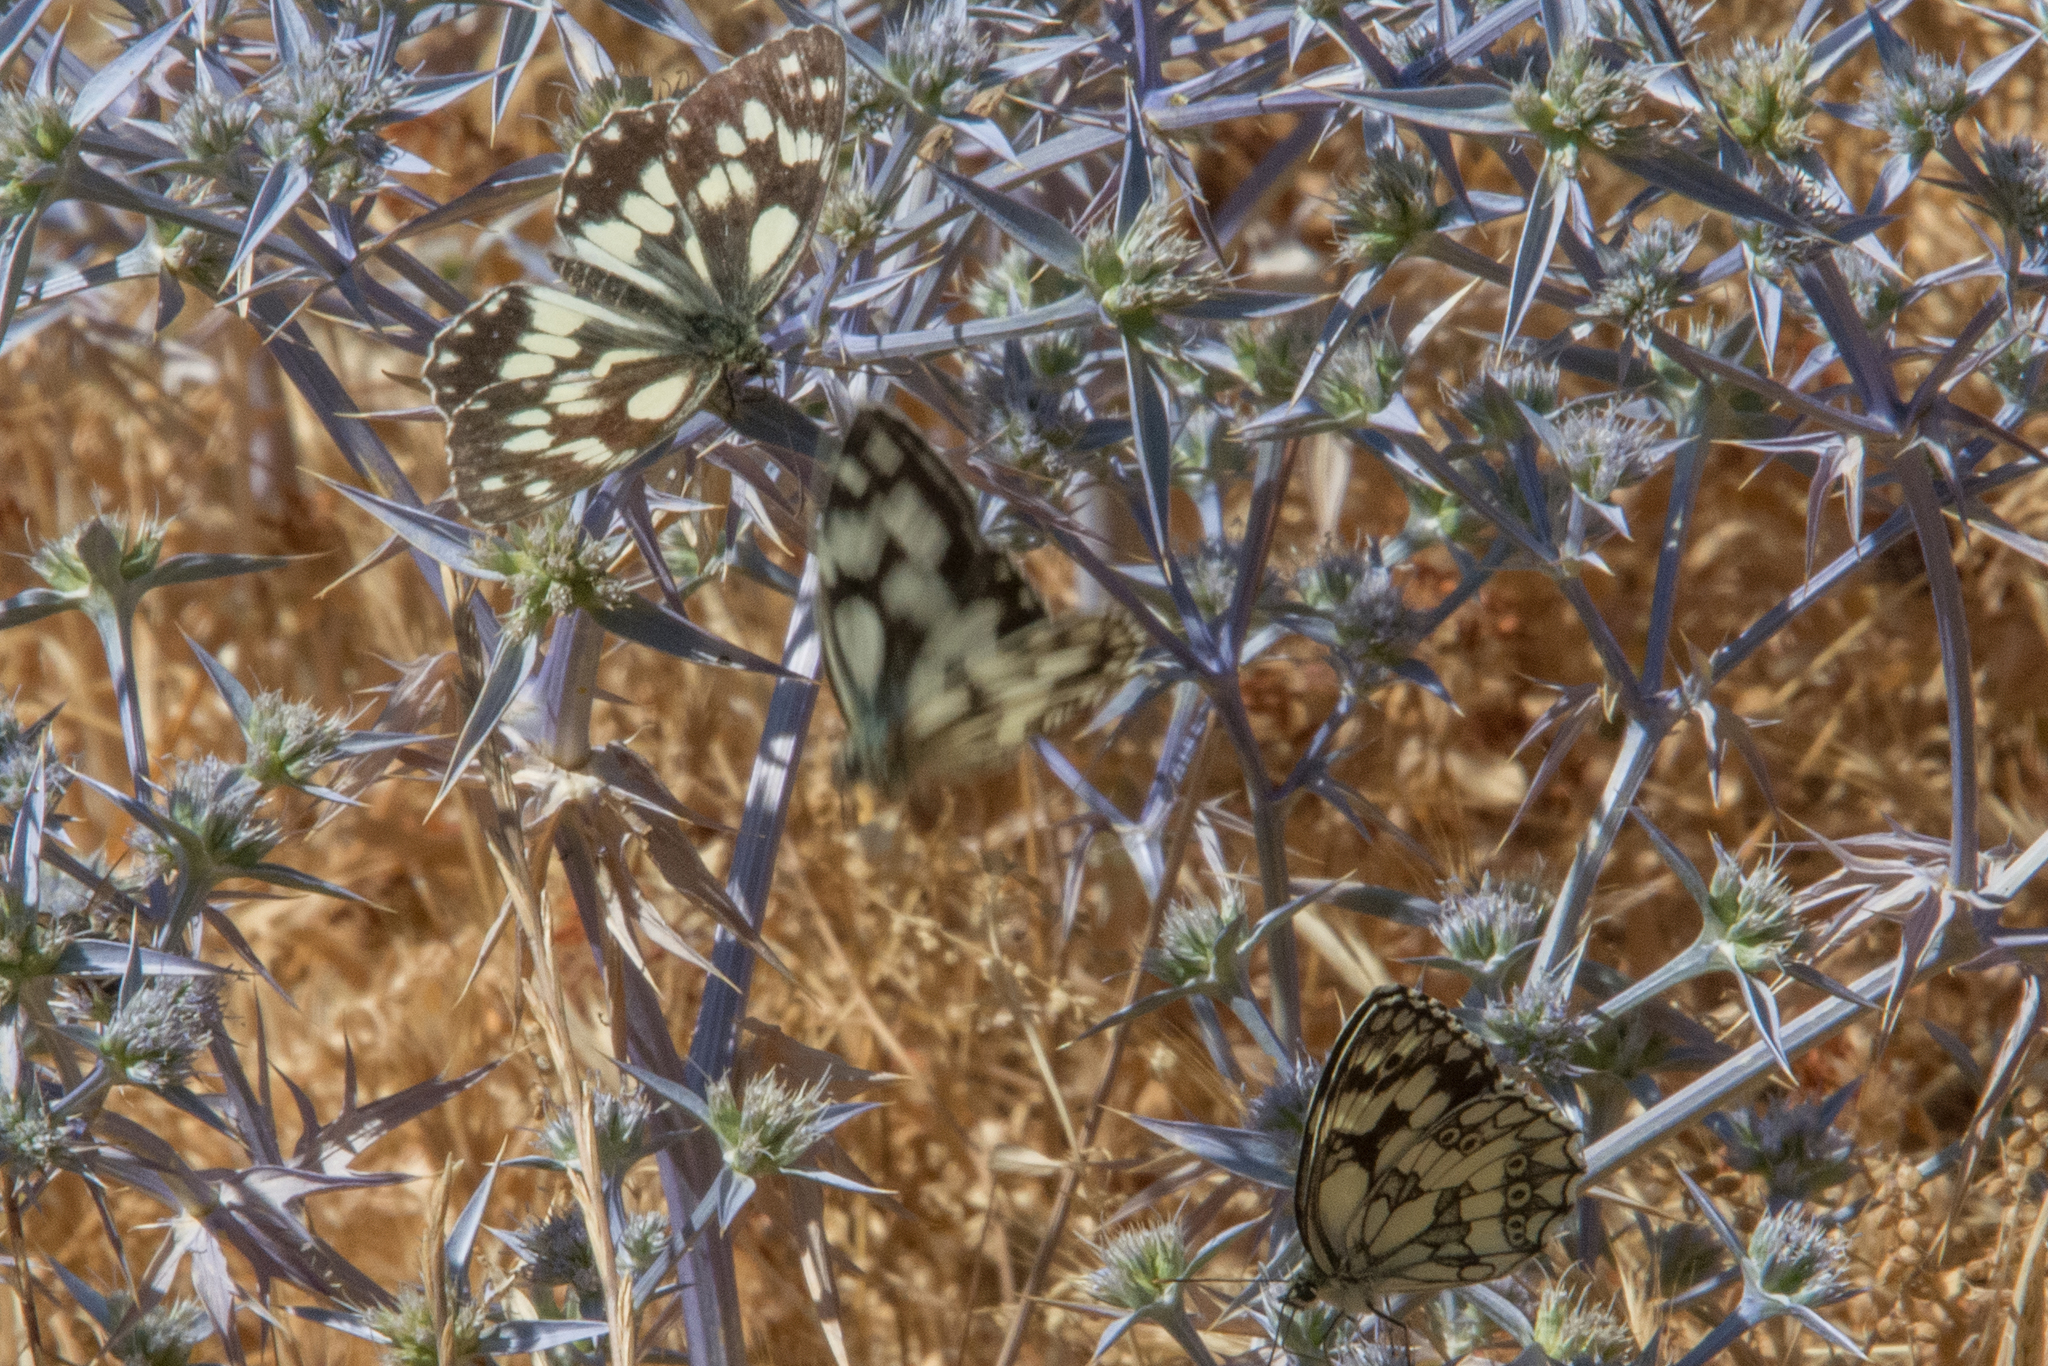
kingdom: Animalia
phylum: Arthropoda
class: Insecta
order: Lepidoptera
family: Nymphalidae
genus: Melanargia
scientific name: Melanargia galathea
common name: Marbled white
